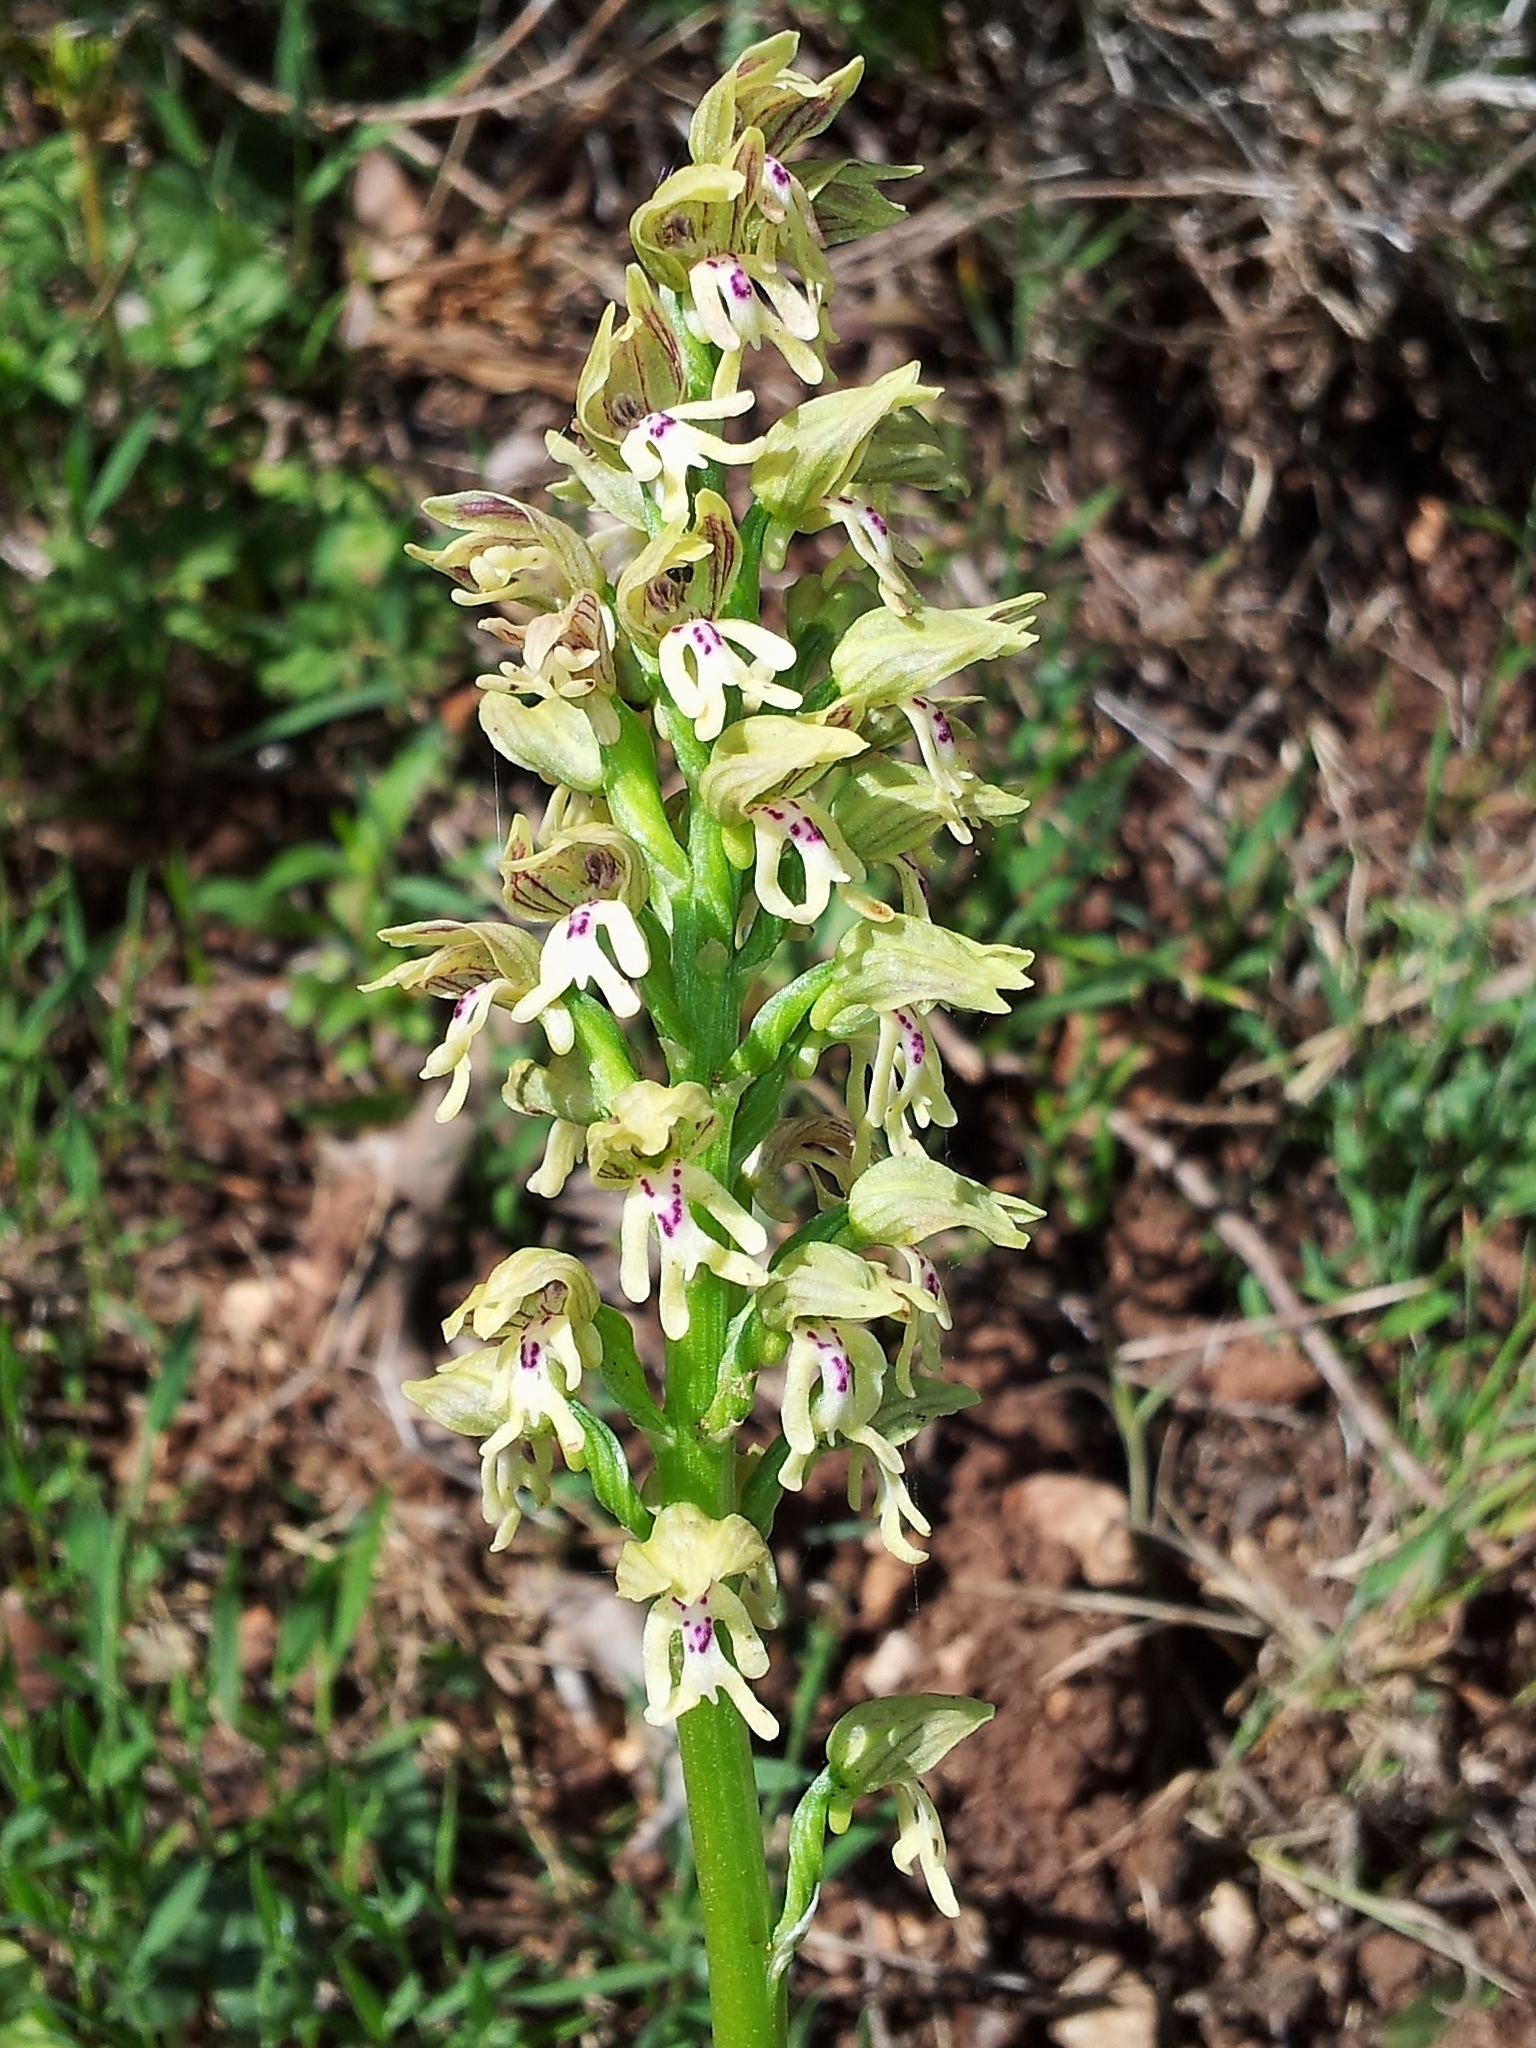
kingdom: Plantae
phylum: Tracheophyta
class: Liliopsida
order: Asparagales
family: Orchidaceae
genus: Orchis
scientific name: Orchis galilaea
